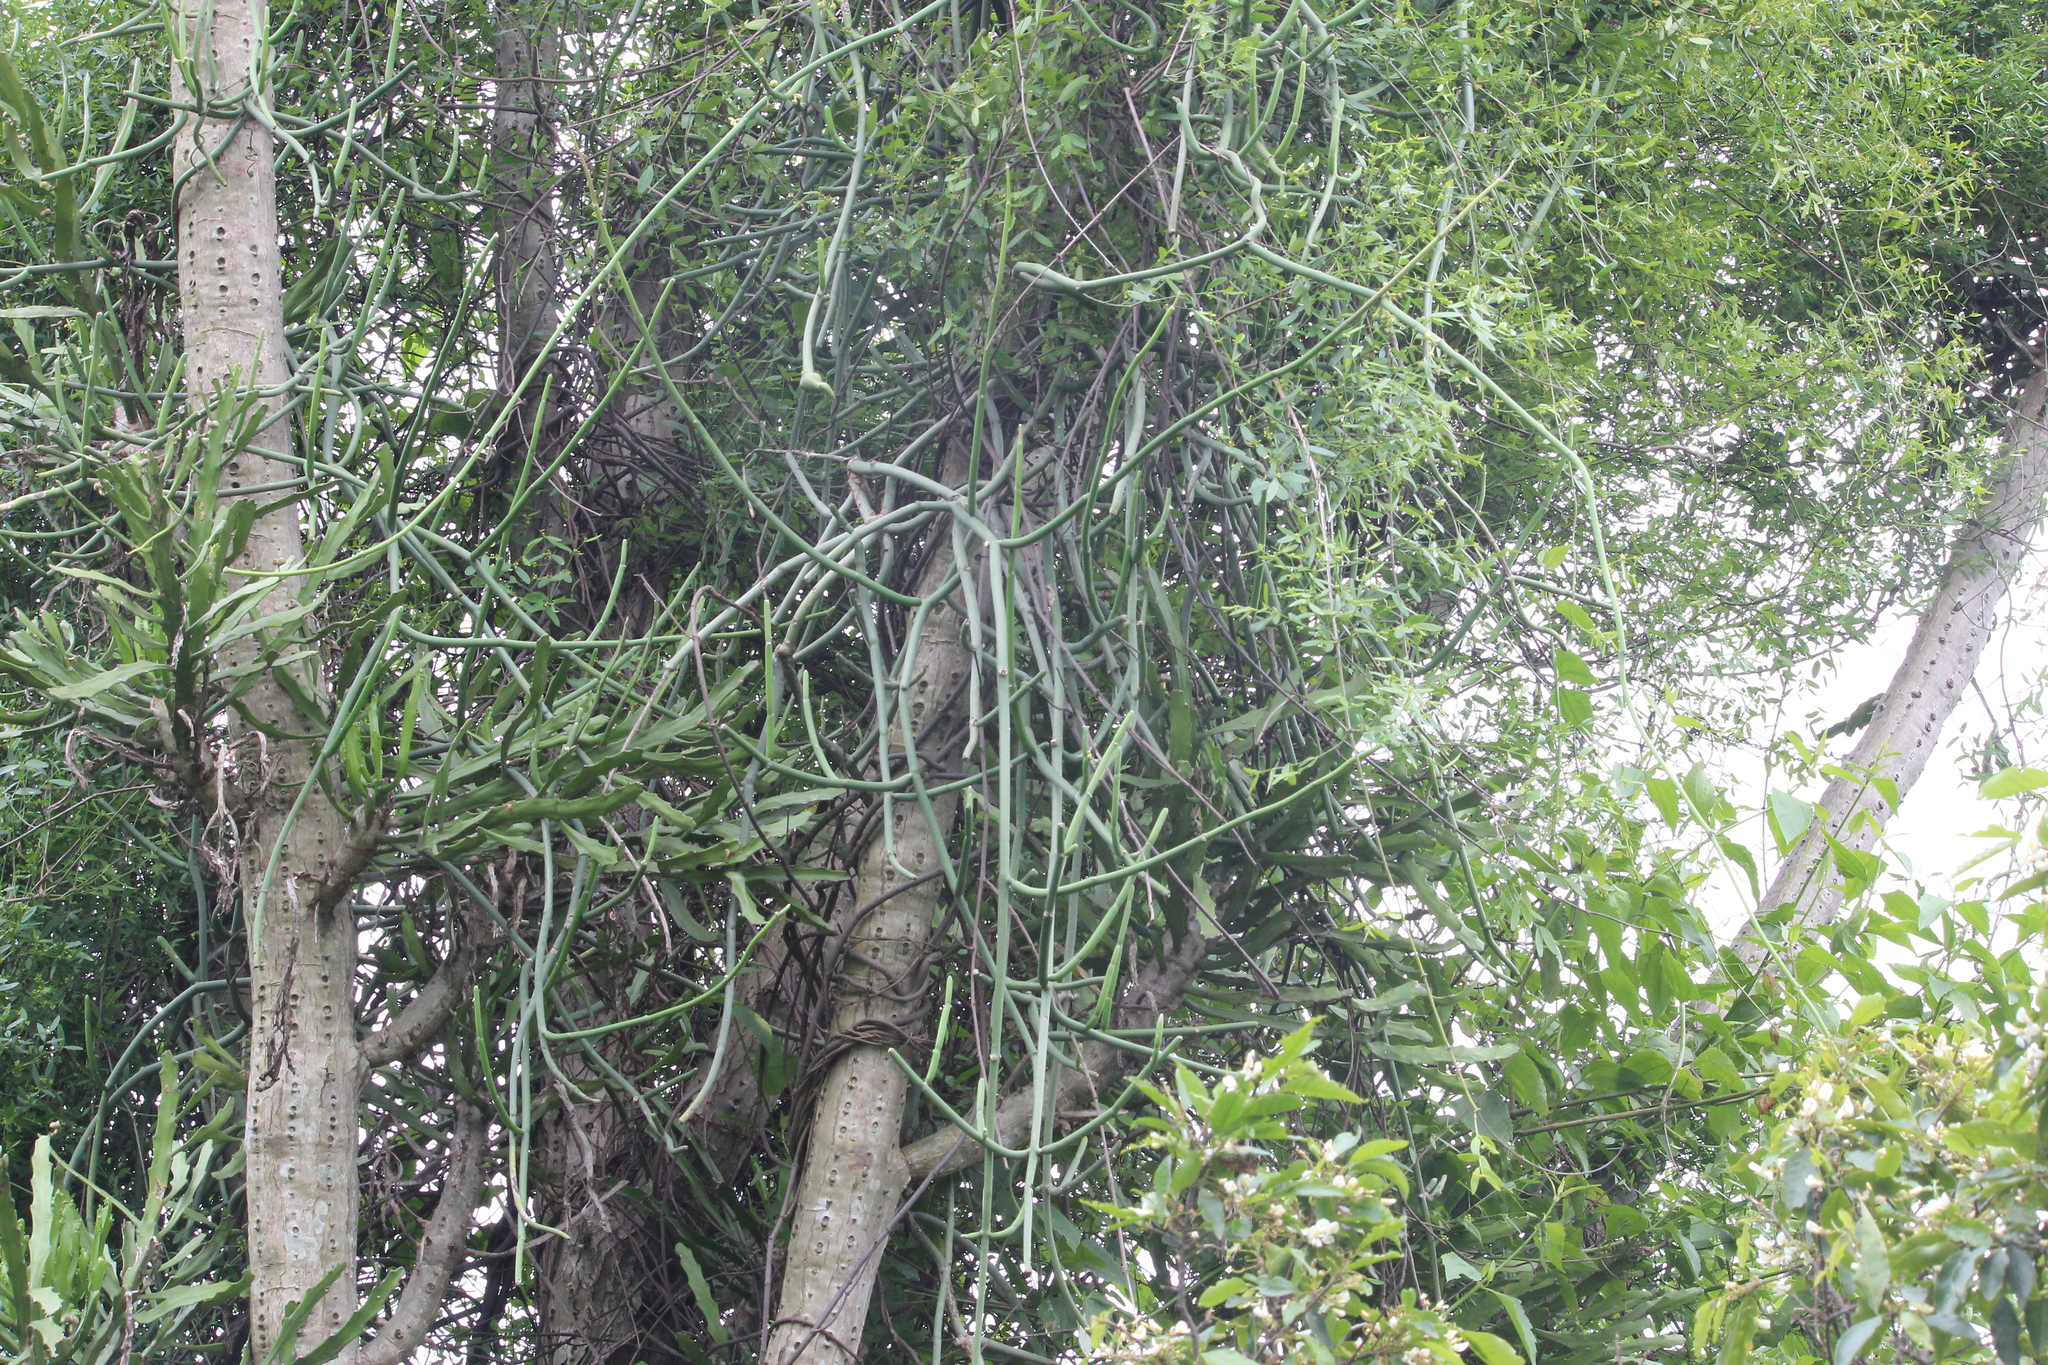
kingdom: Plantae
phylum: Tracheophyta
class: Magnoliopsida
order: Gentianales
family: Apocynaceae
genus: Cynanchum
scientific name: Cynanchum viminale
